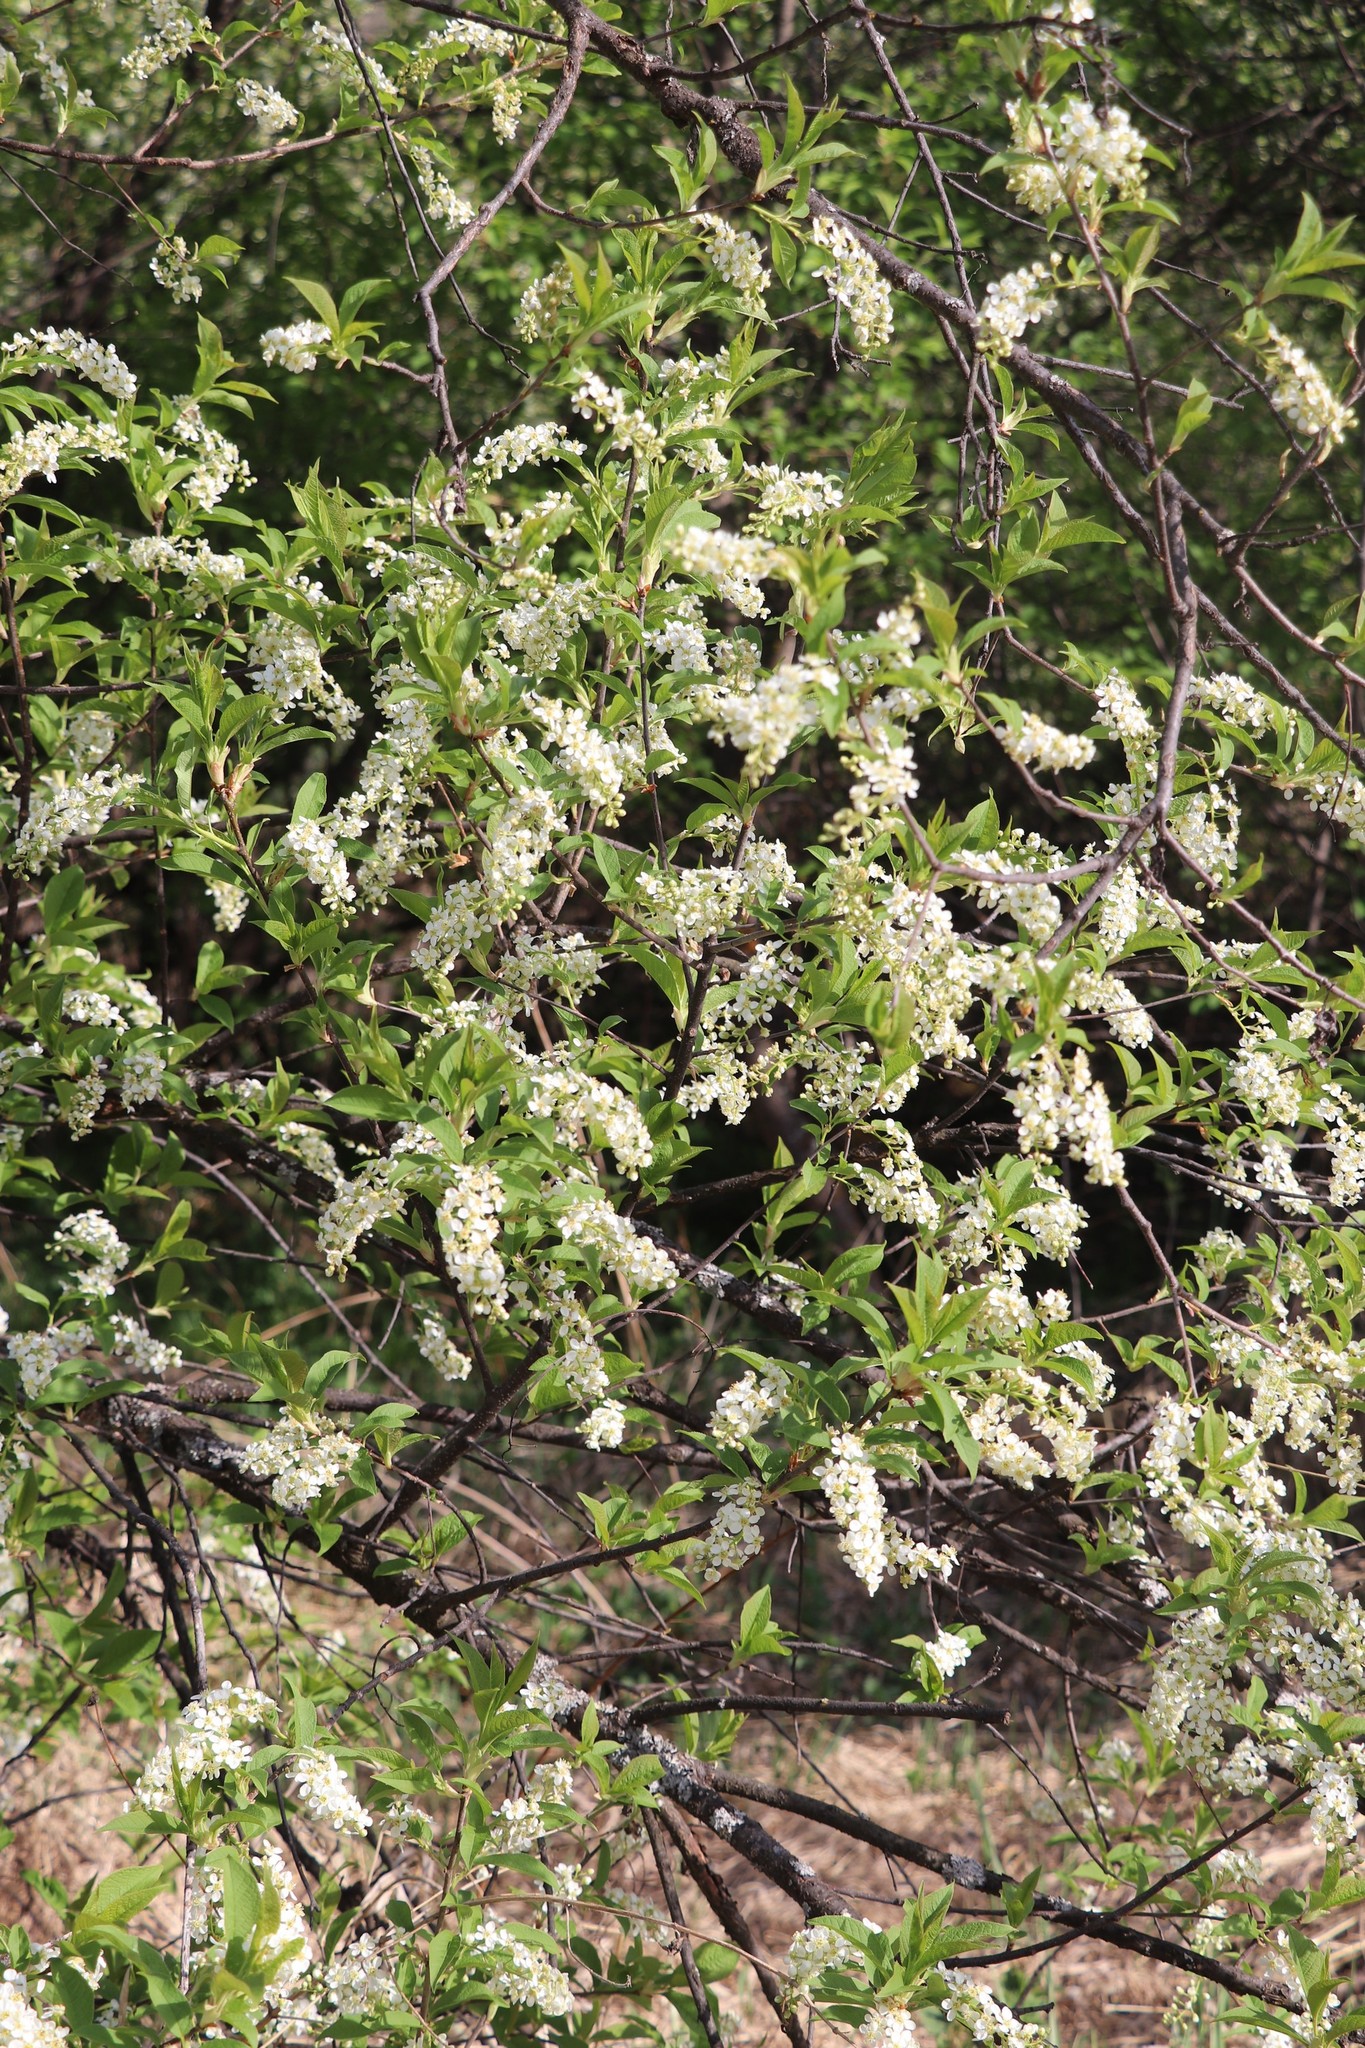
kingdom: Plantae
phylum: Tracheophyta
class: Magnoliopsida
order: Rosales
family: Rosaceae
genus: Prunus
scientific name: Prunus padus
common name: Bird cherry
